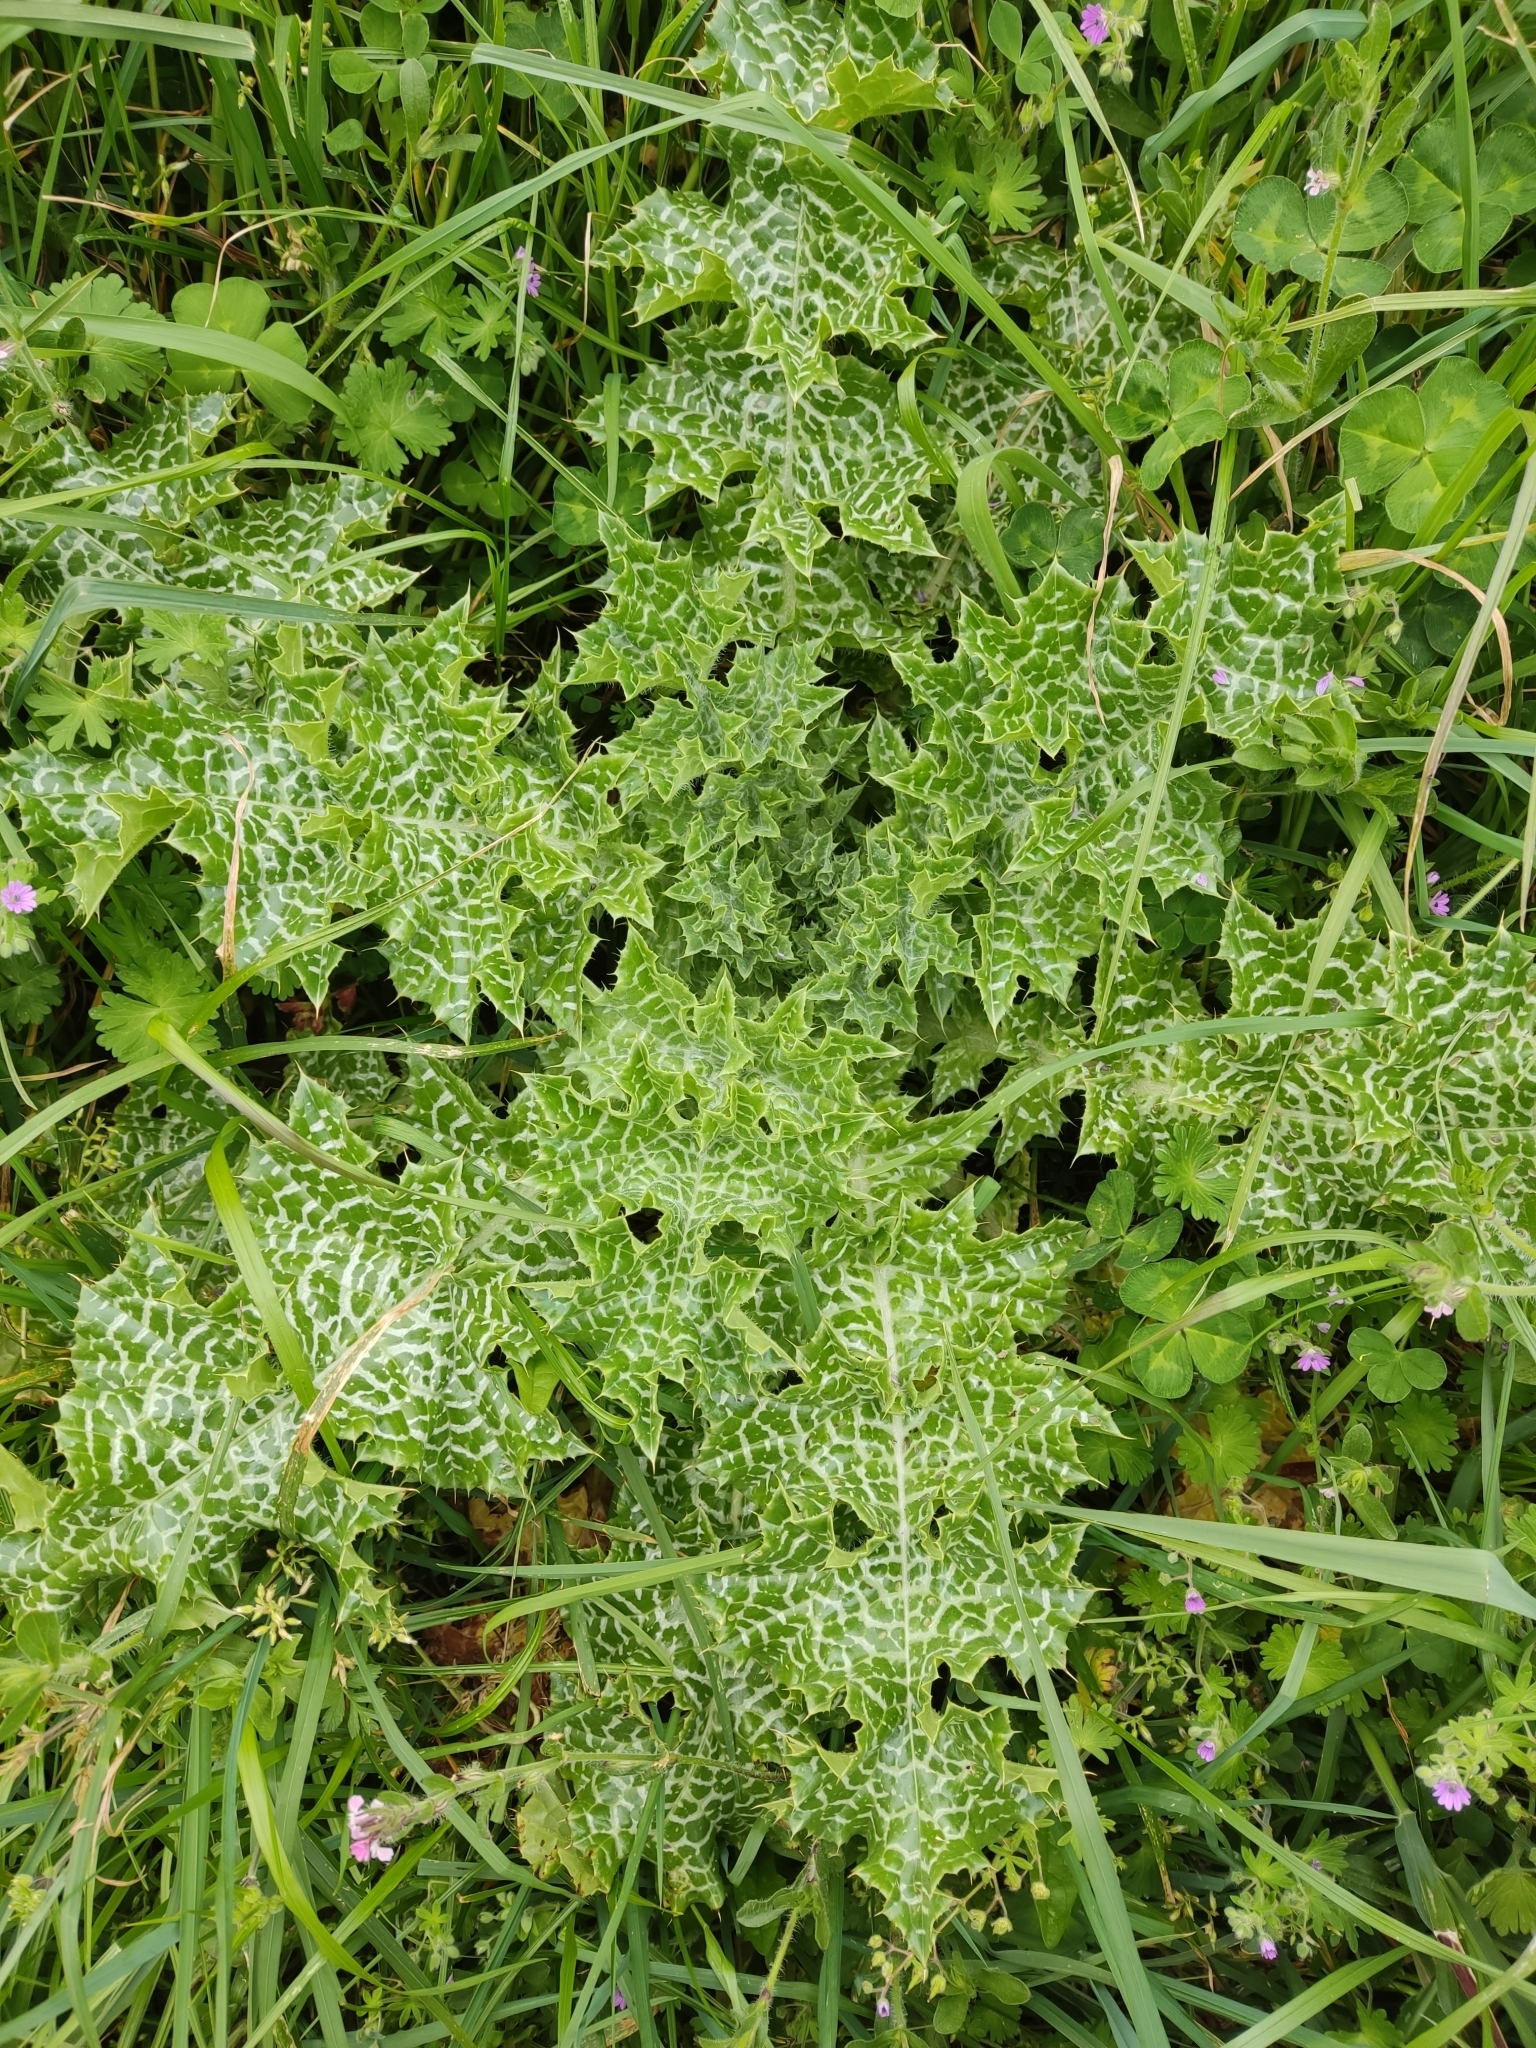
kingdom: Plantae
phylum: Tracheophyta
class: Magnoliopsida
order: Asterales
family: Asteraceae
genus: Silybum
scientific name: Silybum marianum
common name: Milk thistle
